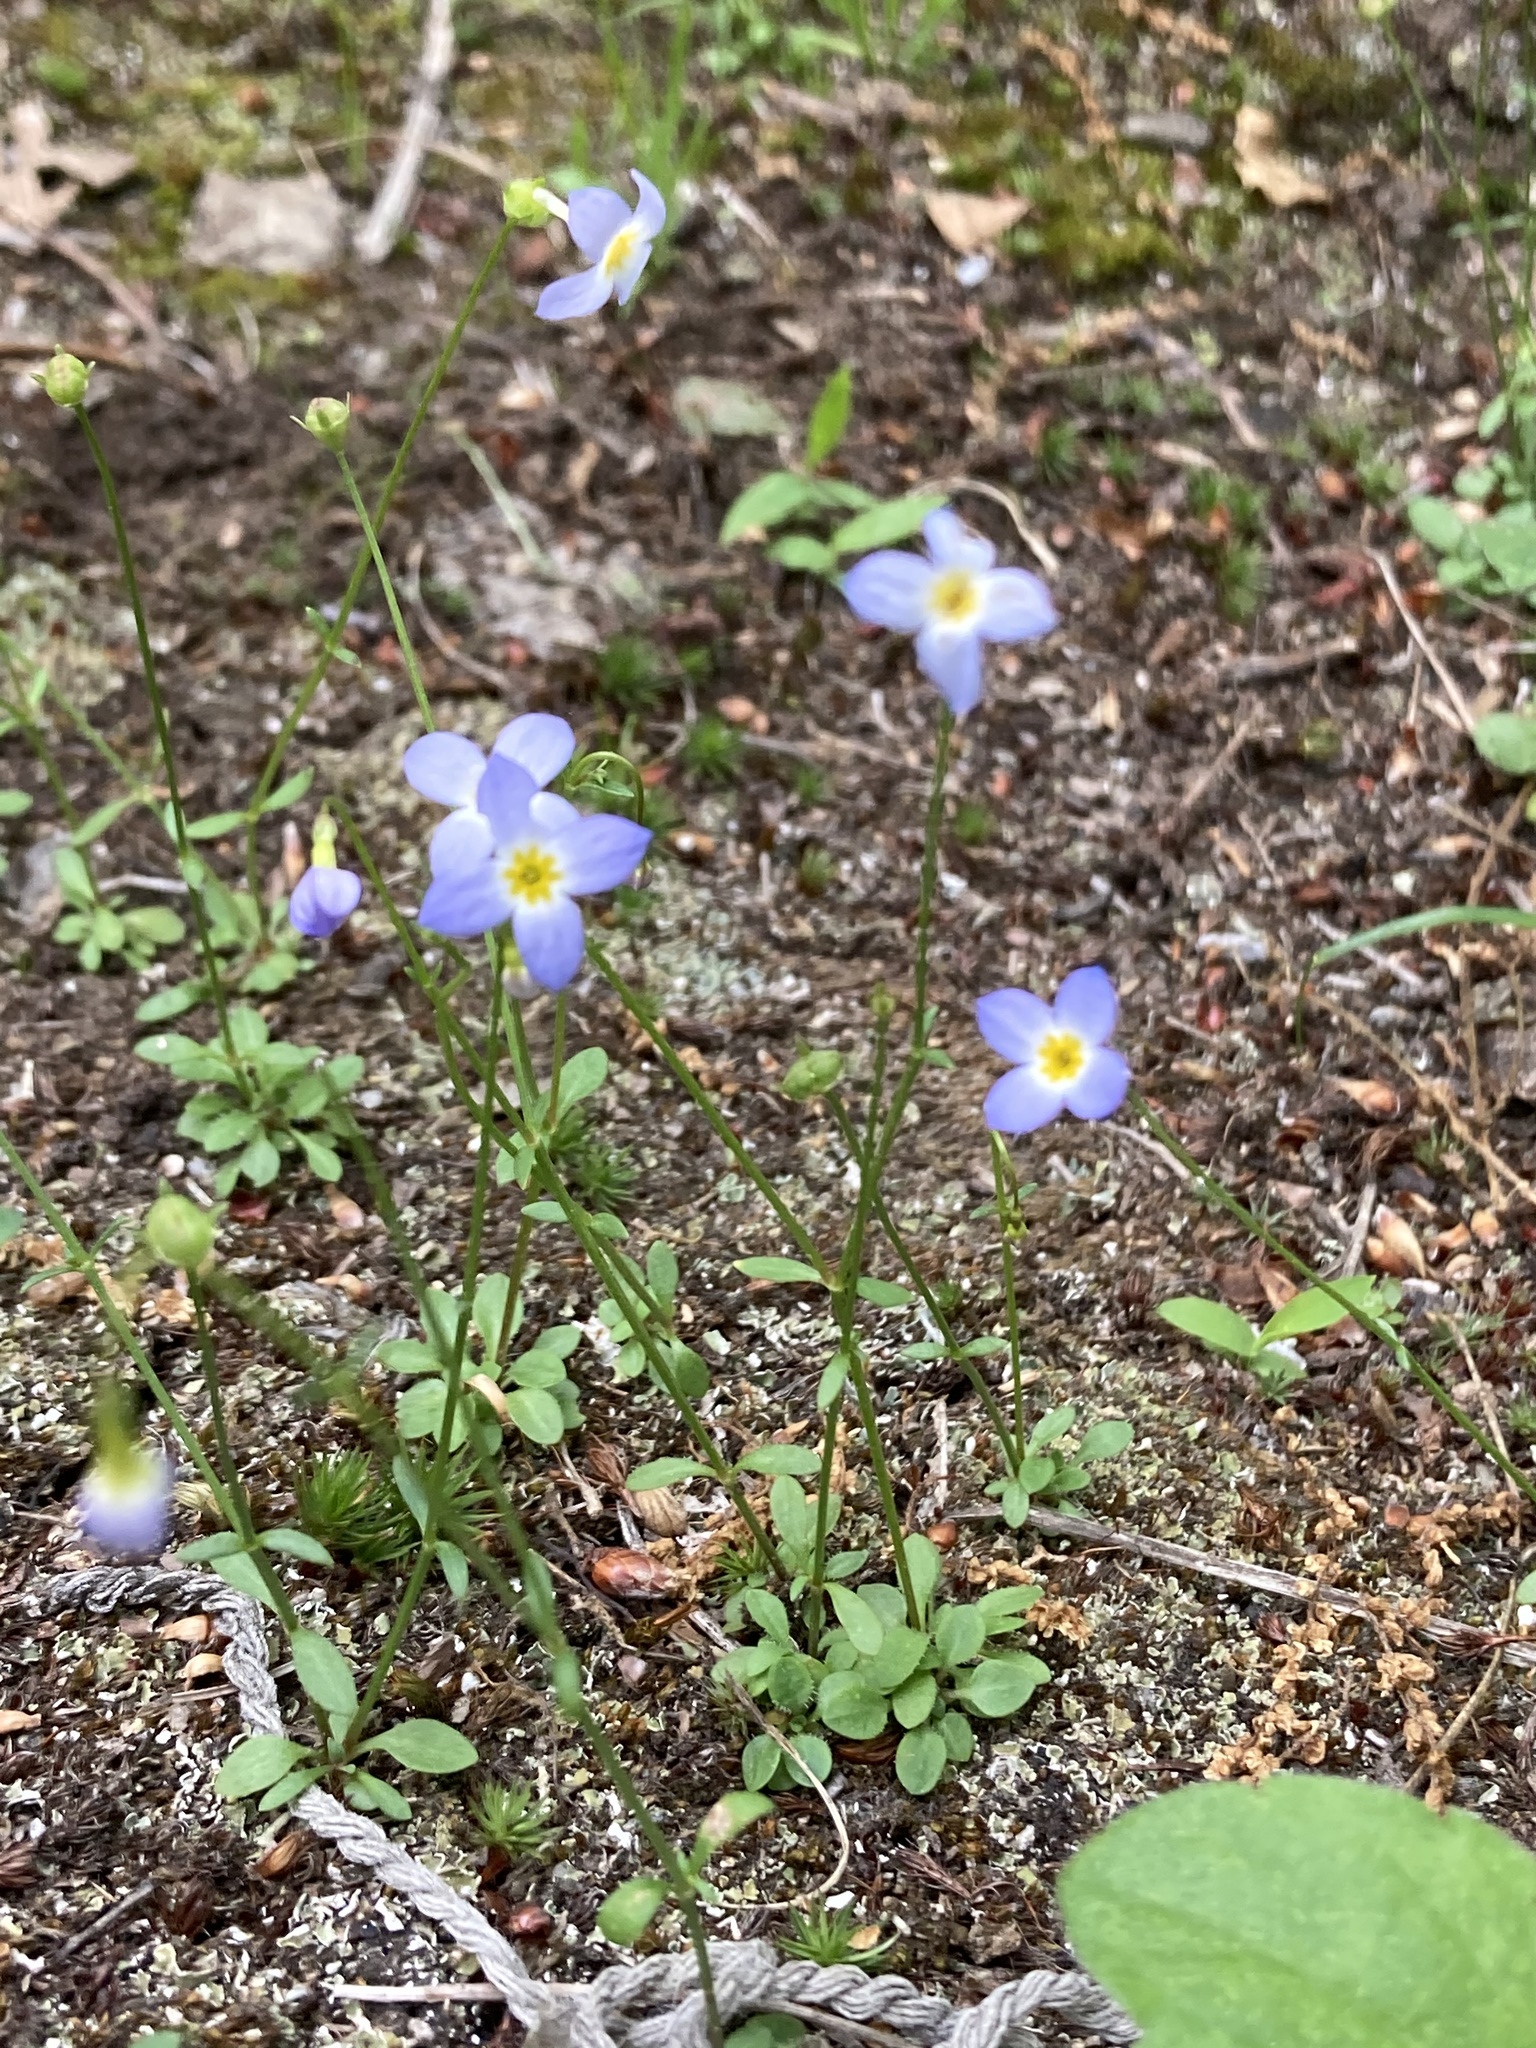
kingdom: Plantae
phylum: Tracheophyta
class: Magnoliopsida
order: Gentianales
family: Rubiaceae
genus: Houstonia
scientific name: Houstonia caerulea
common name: Bluets
